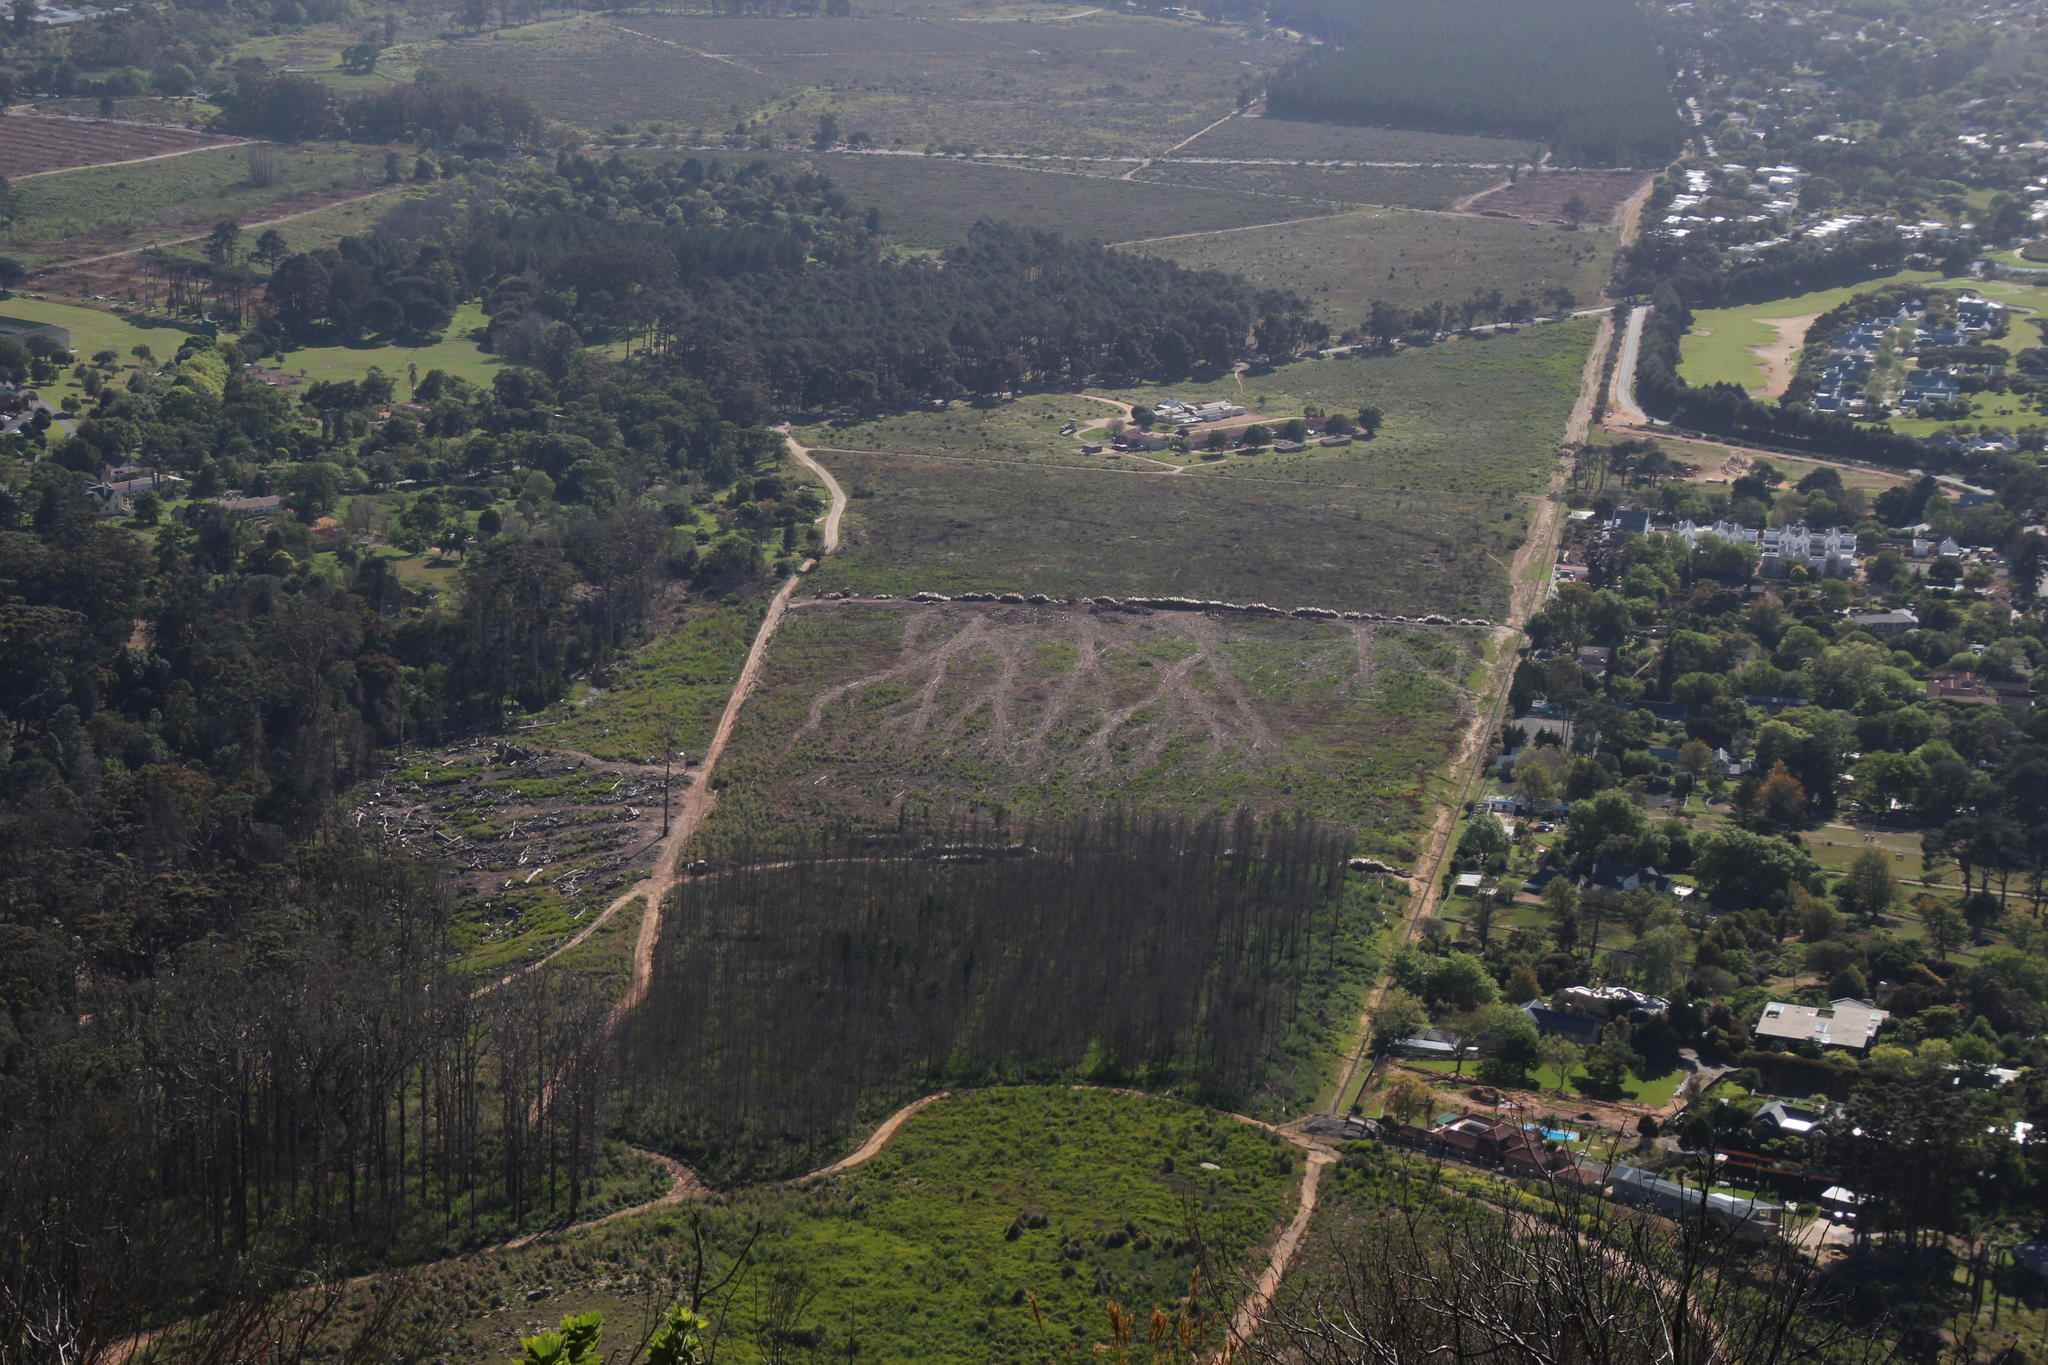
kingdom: Plantae
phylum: Tracheophyta
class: Pinopsida
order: Pinales
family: Pinaceae
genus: Pinus
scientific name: Pinus radiata
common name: Monterey pine
